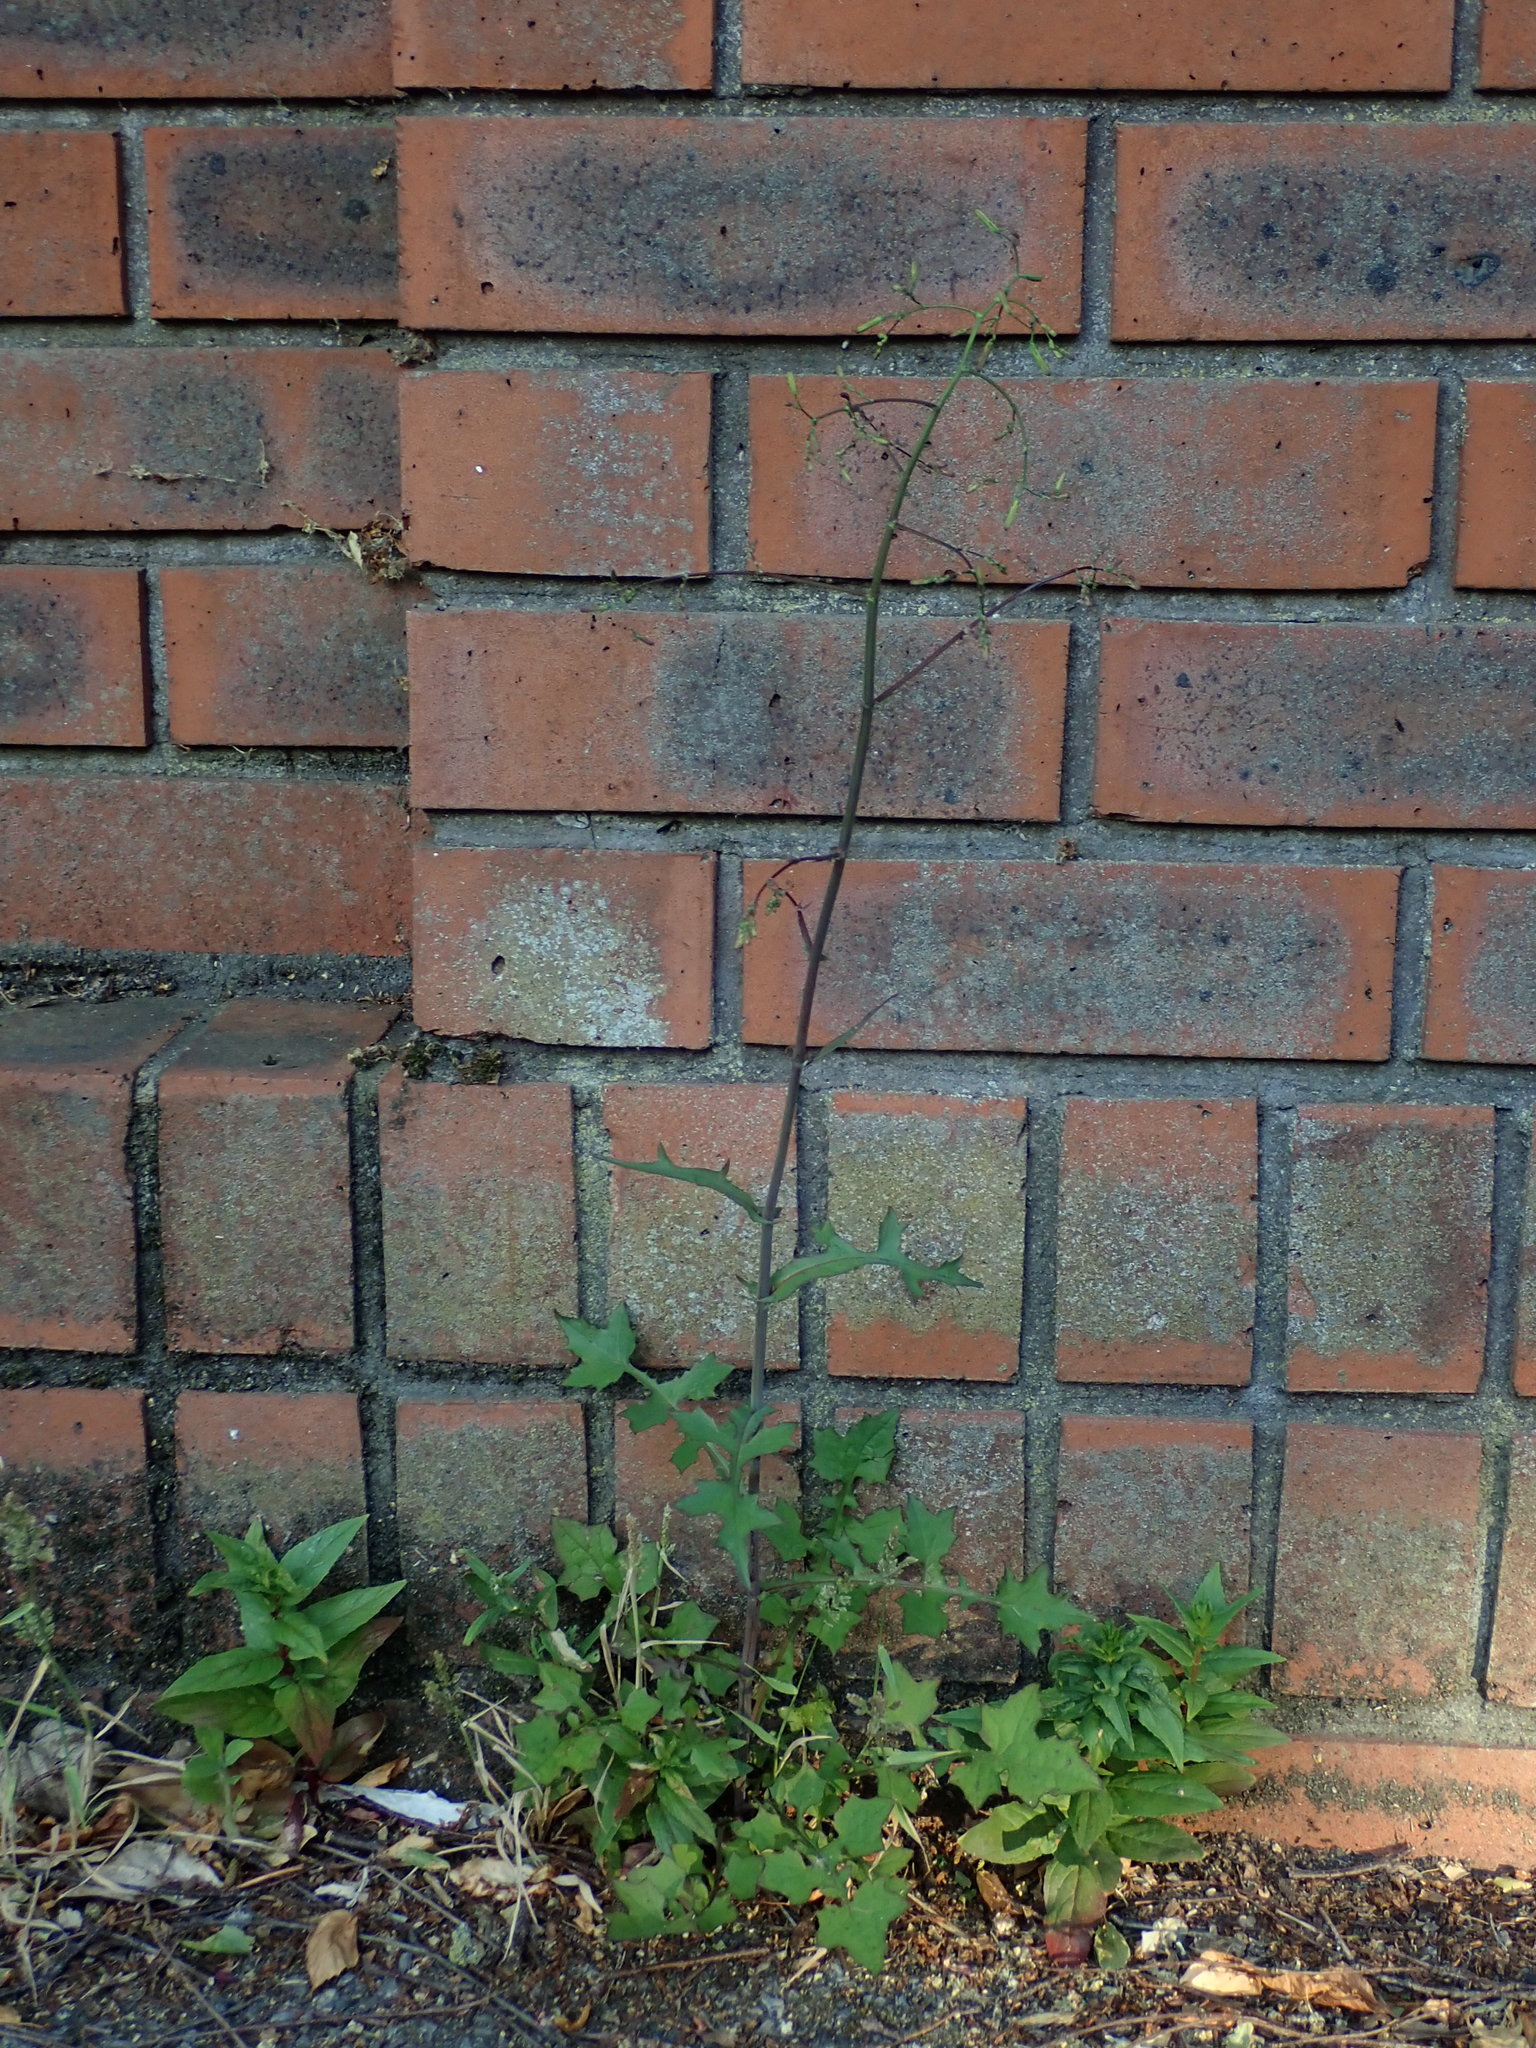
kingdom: Plantae
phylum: Tracheophyta
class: Magnoliopsida
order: Asterales
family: Asteraceae
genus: Mycelis
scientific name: Mycelis muralis
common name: Wall lettuce
